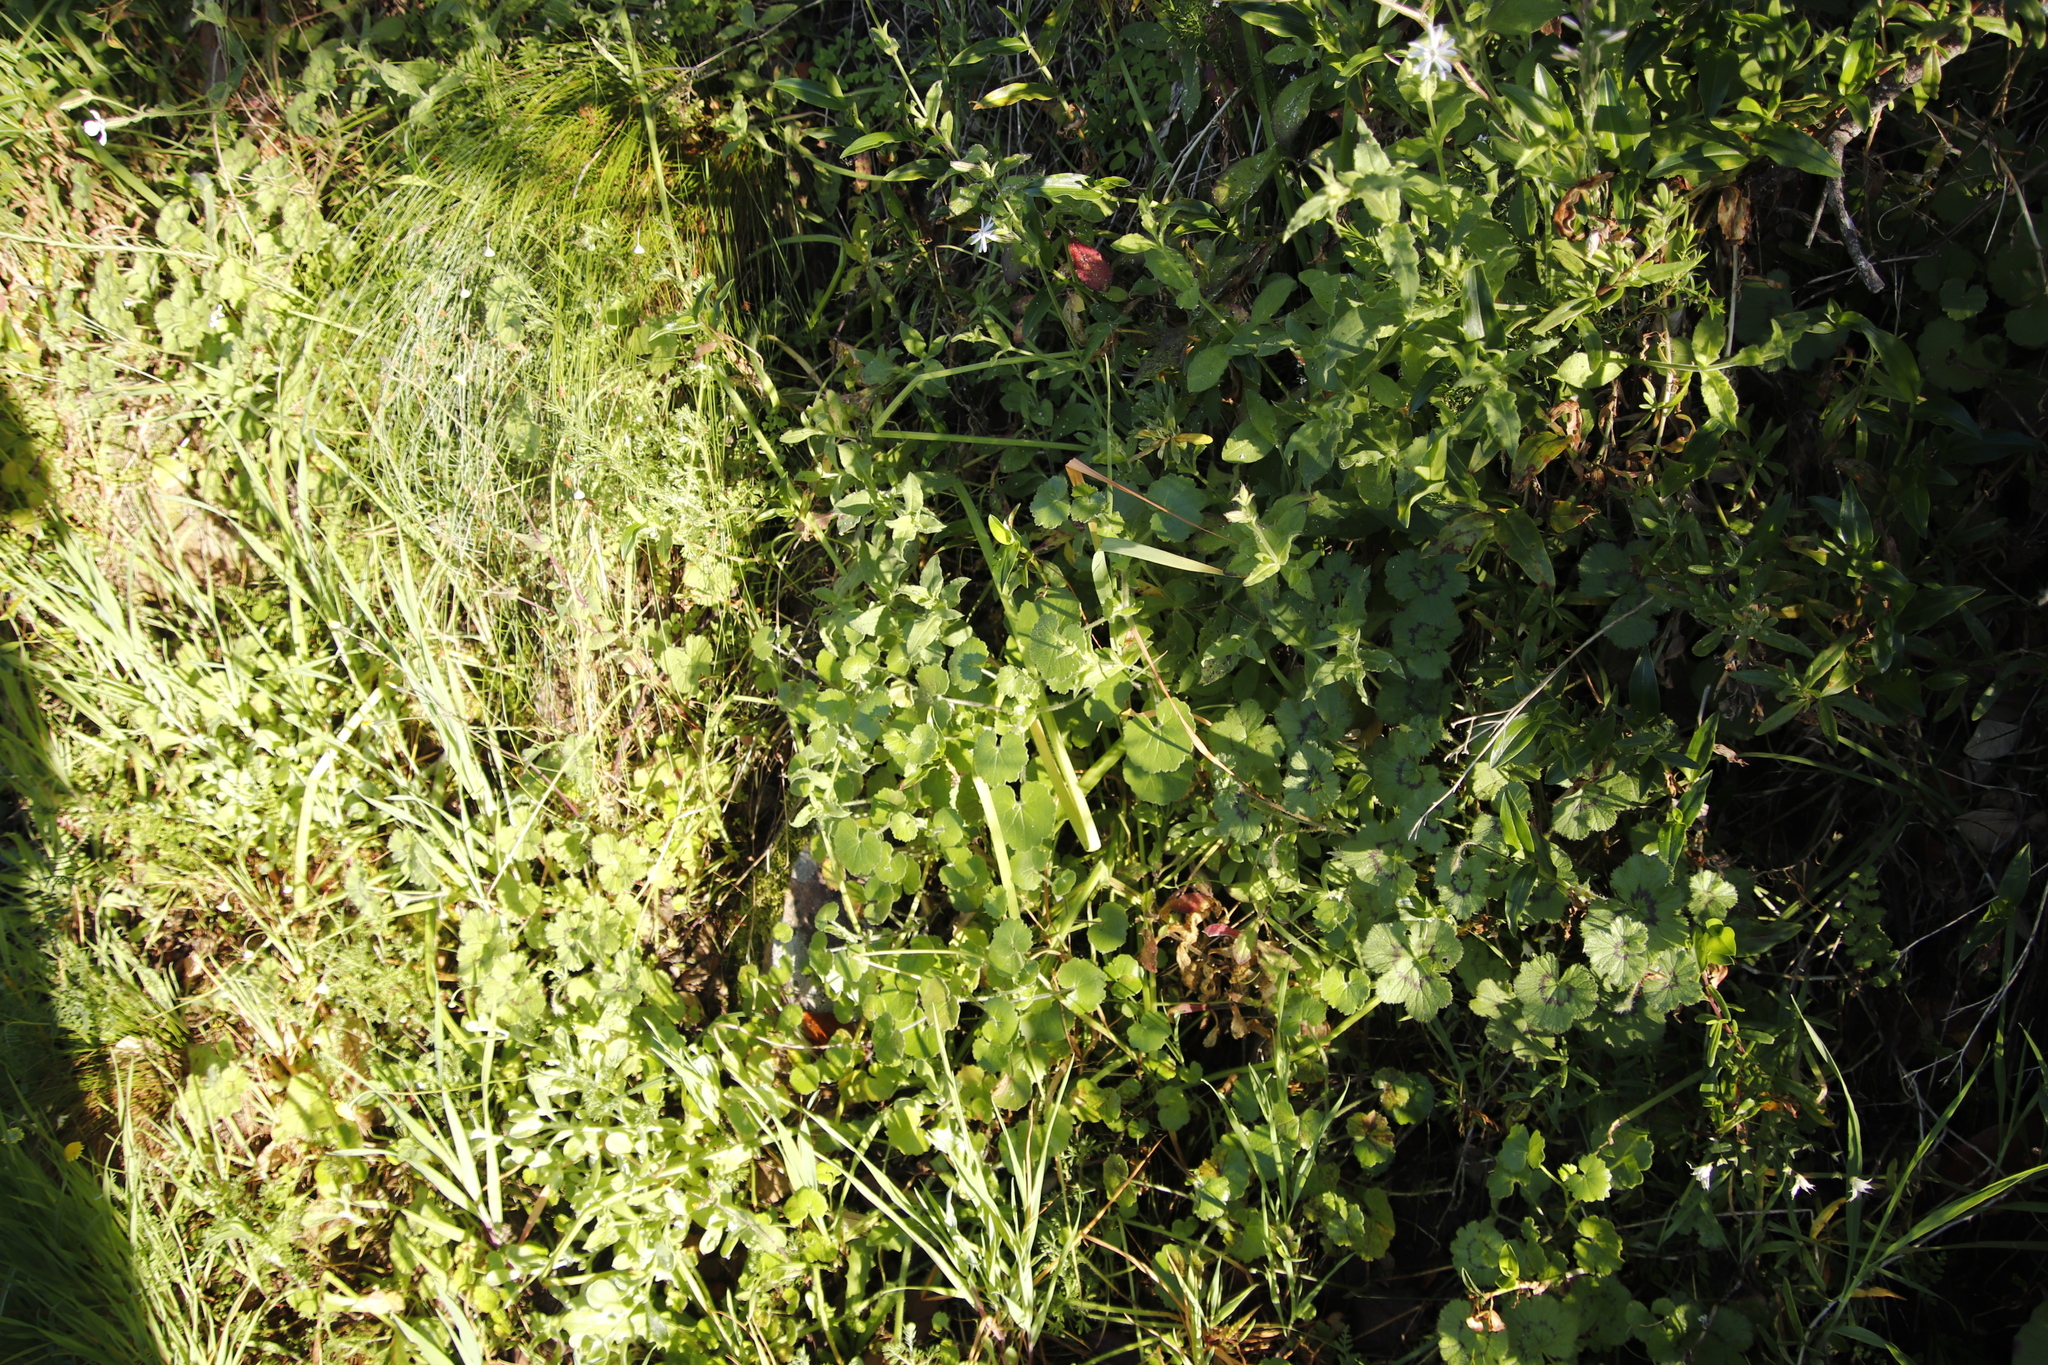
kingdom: Plantae
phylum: Tracheophyta
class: Magnoliopsida
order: Geraniales
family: Geraniaceae
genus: Pelargonium
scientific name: Pelargonium elongatum
